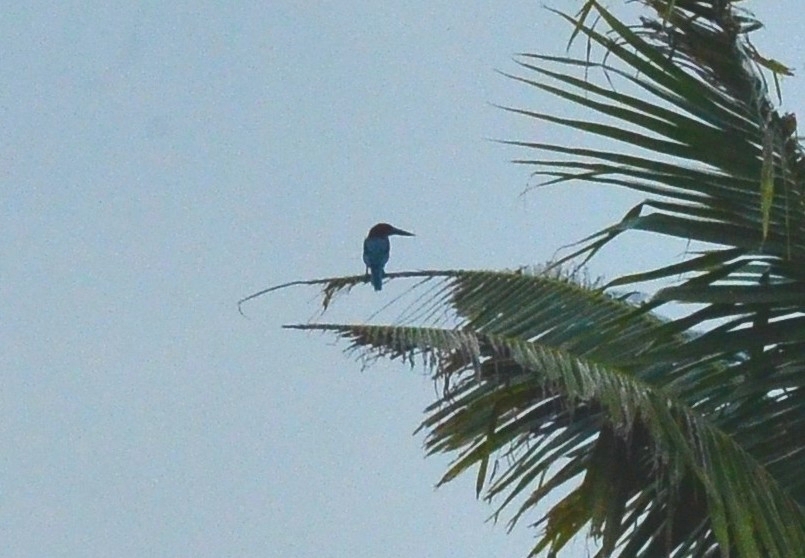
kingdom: Animalia
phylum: Chordata
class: Aves
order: Coraciiformes
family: Alcedinidae
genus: Halcyon
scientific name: Halcyon smyrnensis
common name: White-throated kingfisher
